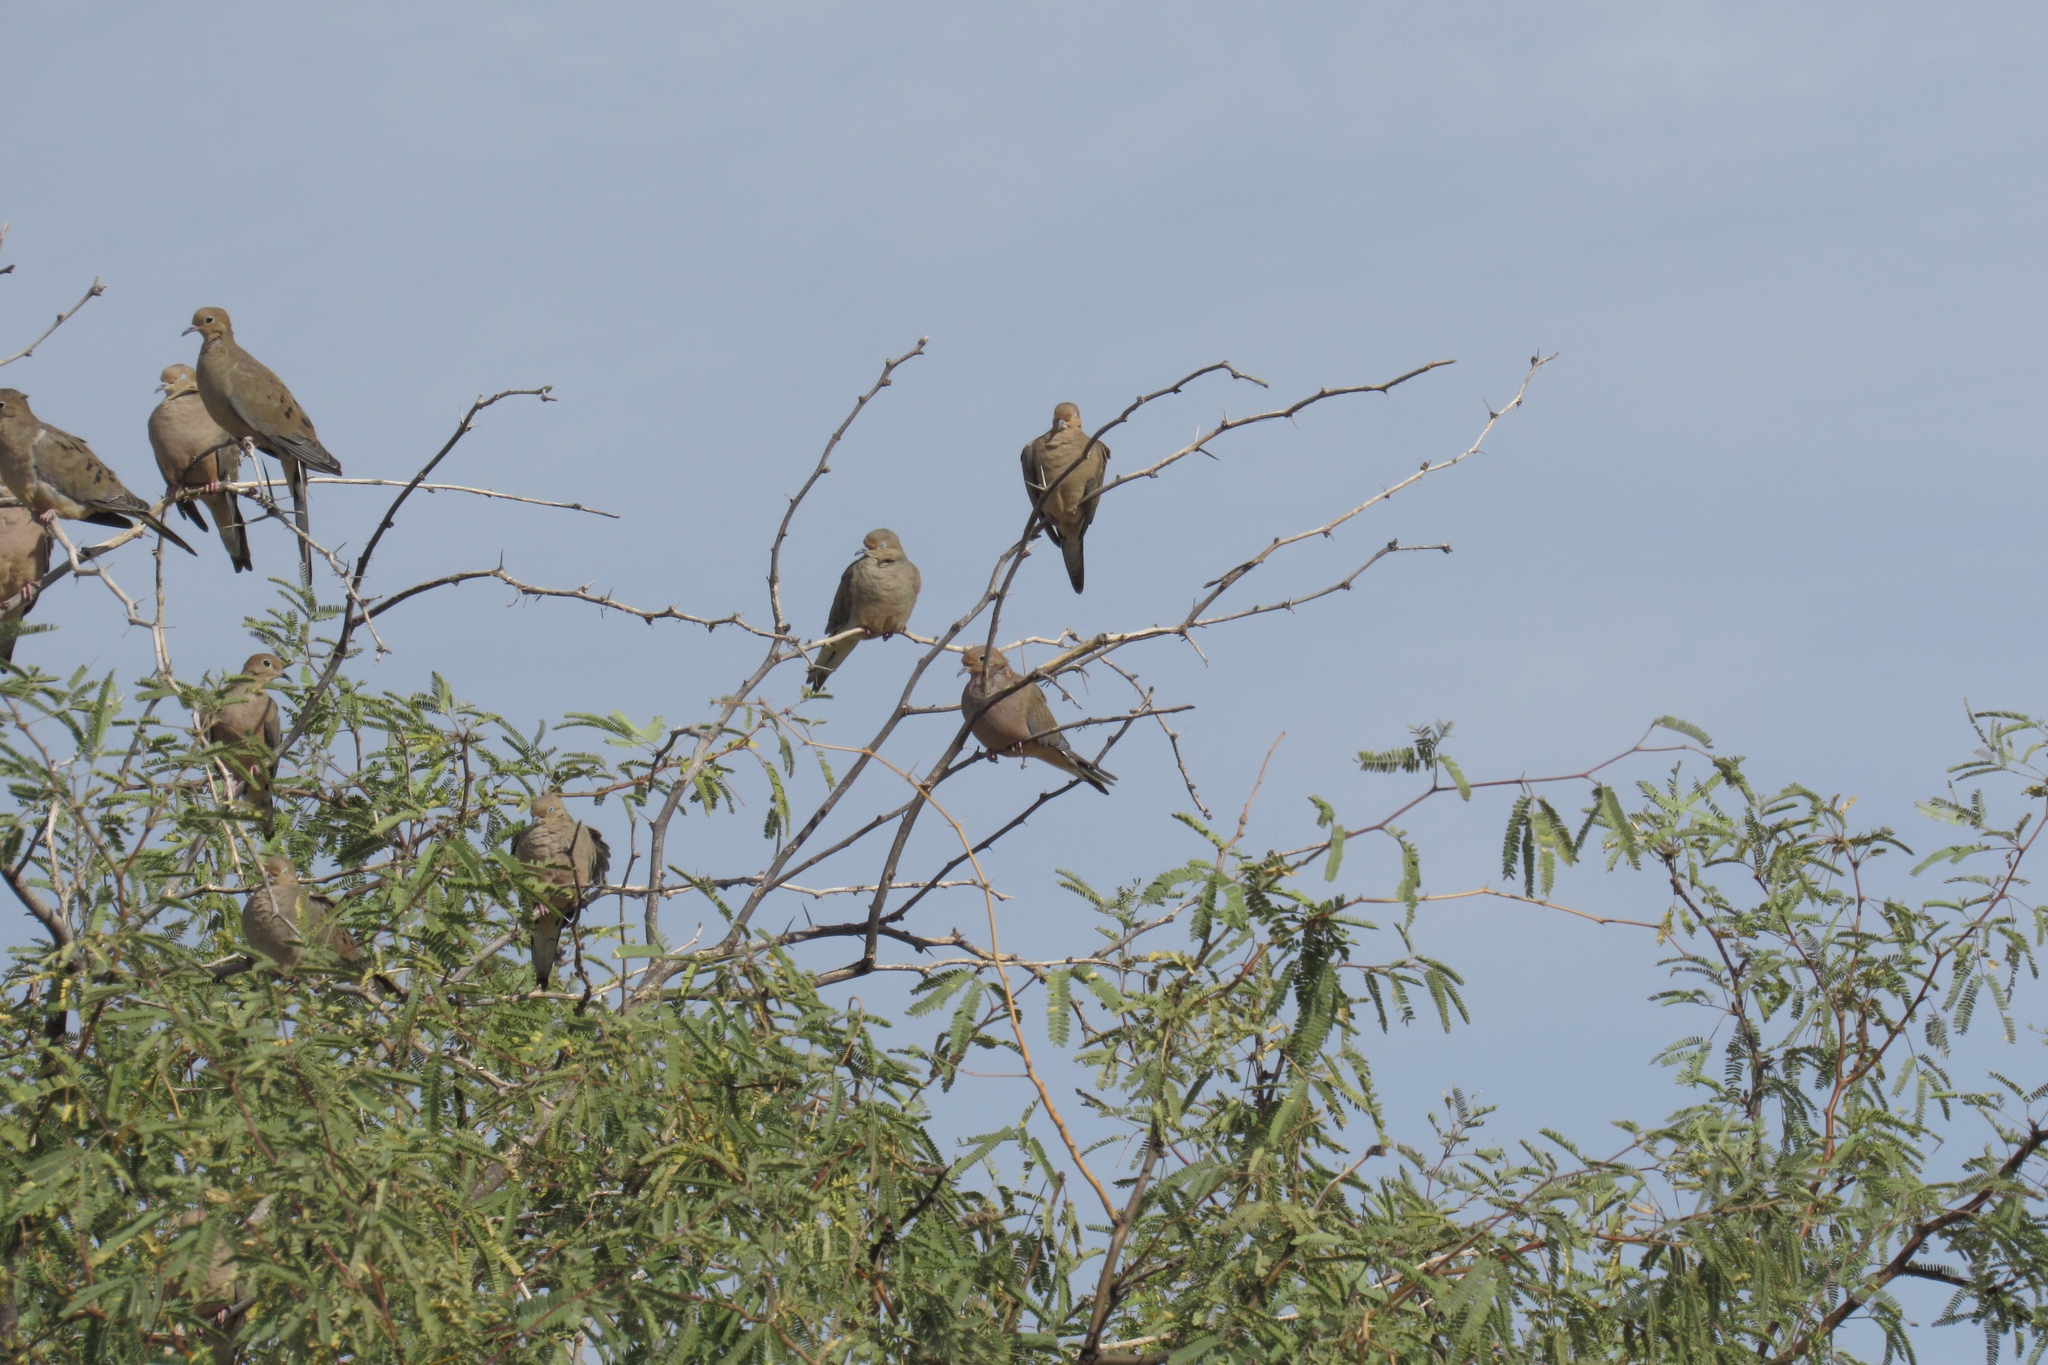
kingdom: Animalia
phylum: Chordata
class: Aves
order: Columbiformes
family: Columbidae
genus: Zenaida
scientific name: Zenaida macroura
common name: Mourning dove
